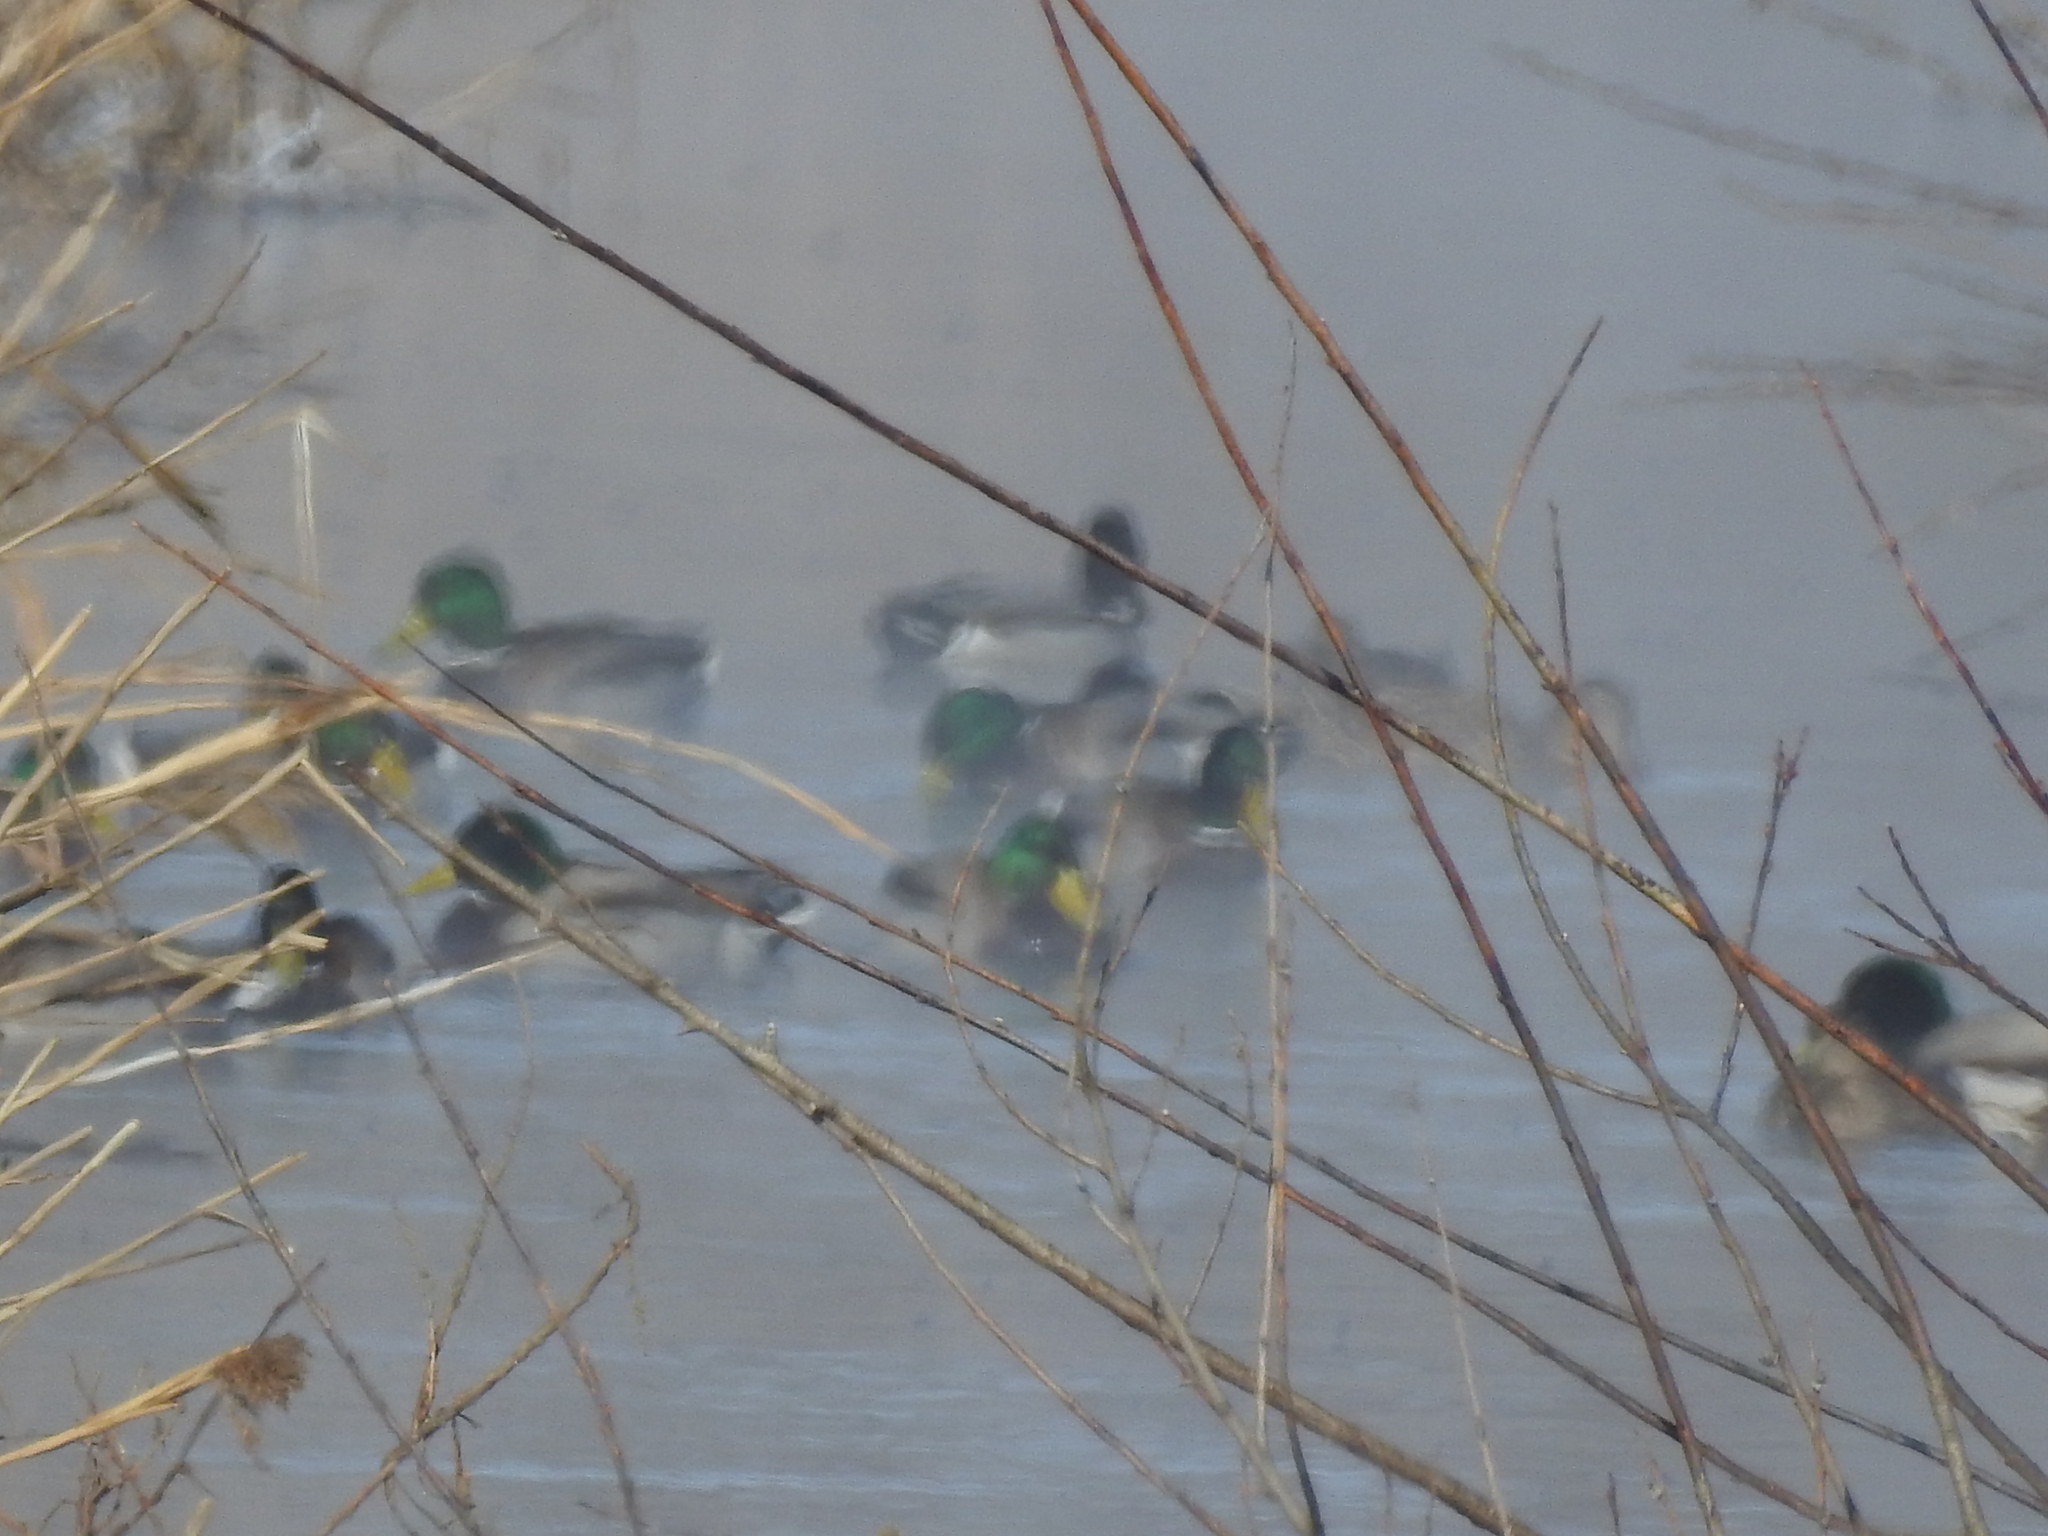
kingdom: Animalia
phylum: Chordata
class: Aves
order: Anseriformes
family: Anatidae
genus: Anas
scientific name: Anas platyrhynchos
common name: Mallard
